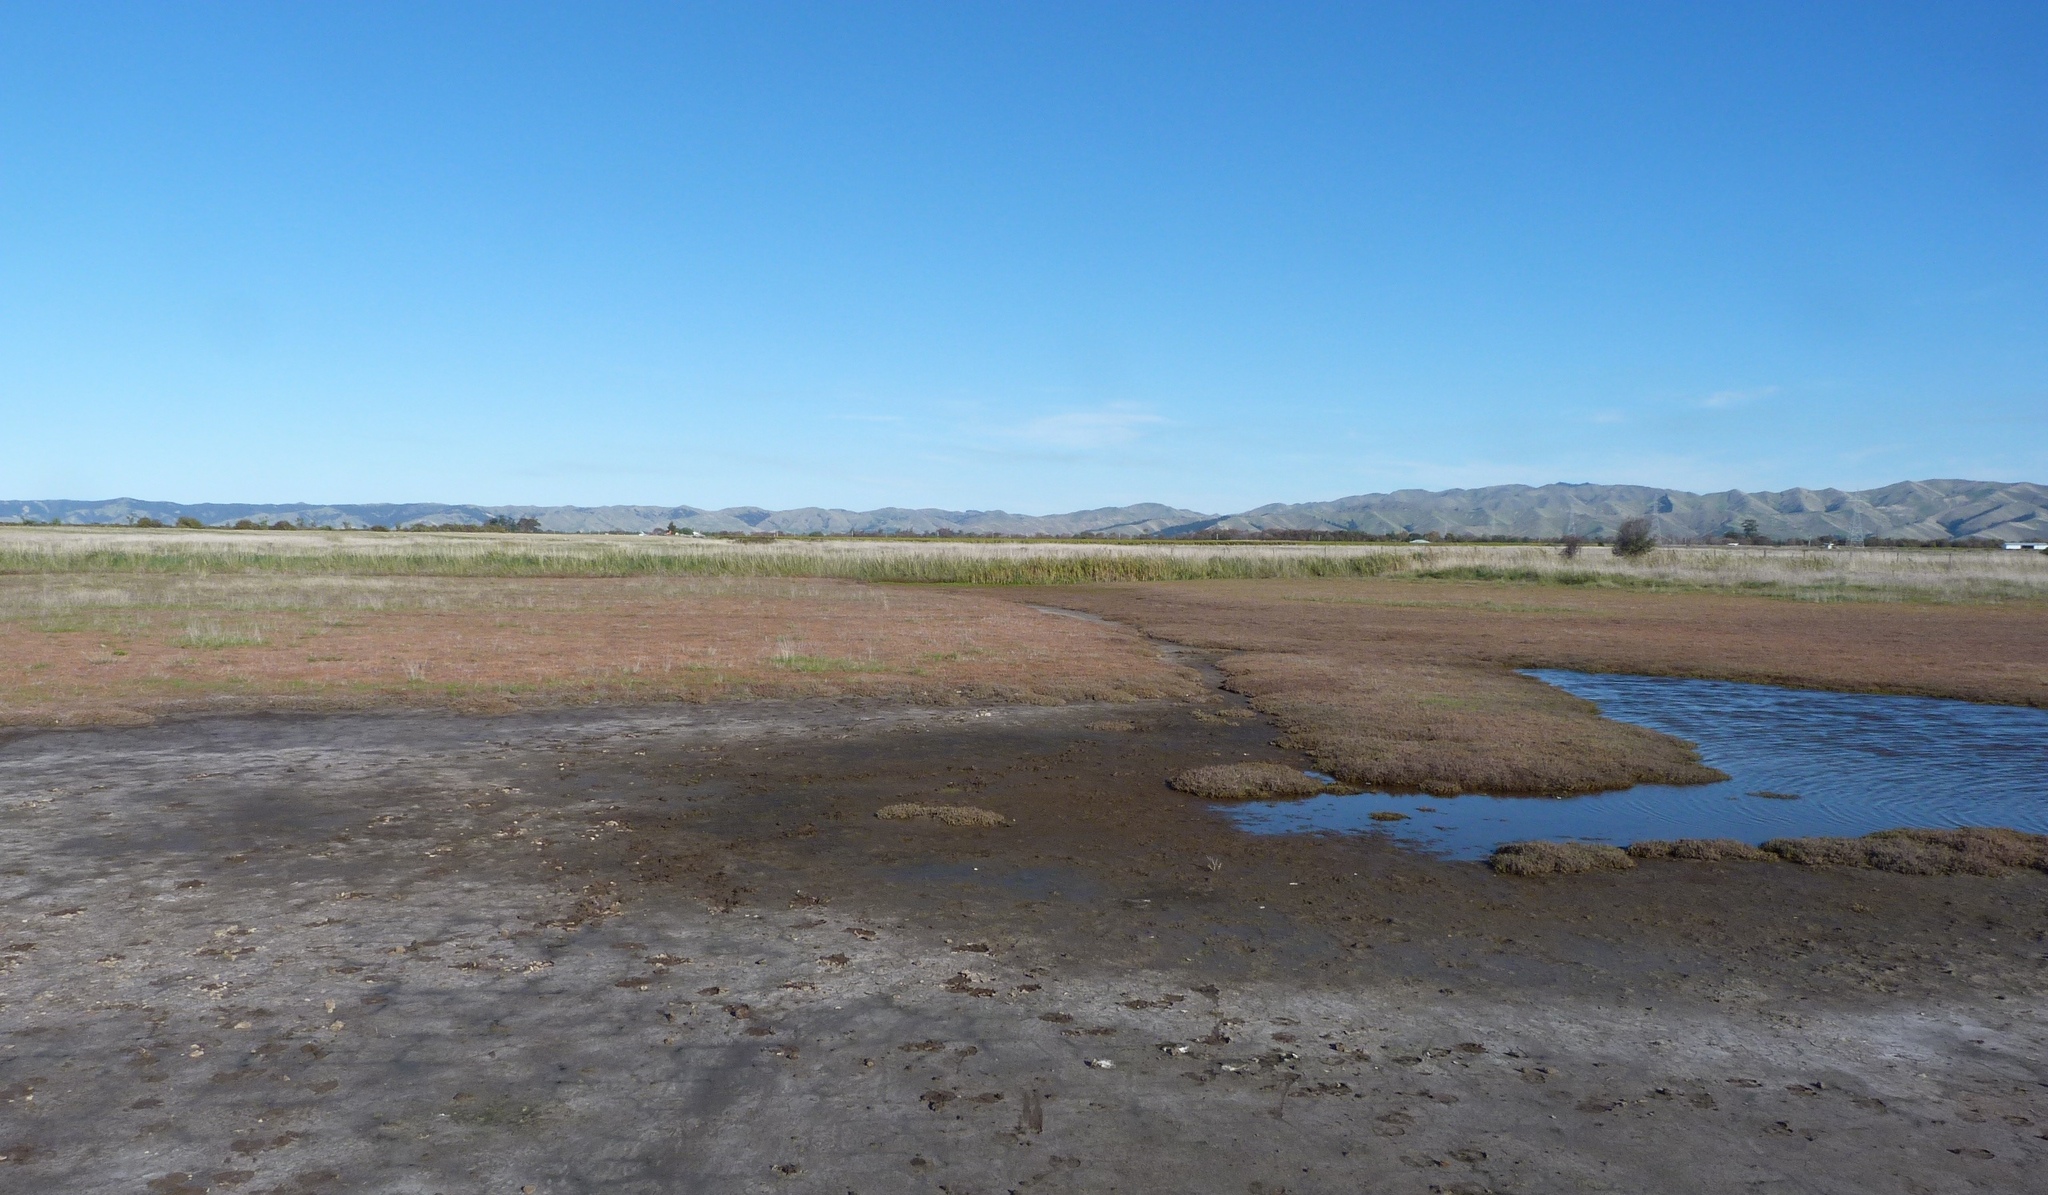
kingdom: Plantae
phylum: Tracheophyta
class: Magnoliopsida
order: Caryophyllales
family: Amaranthaceae
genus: Salicornia
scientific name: Salicornia quinqueflora
